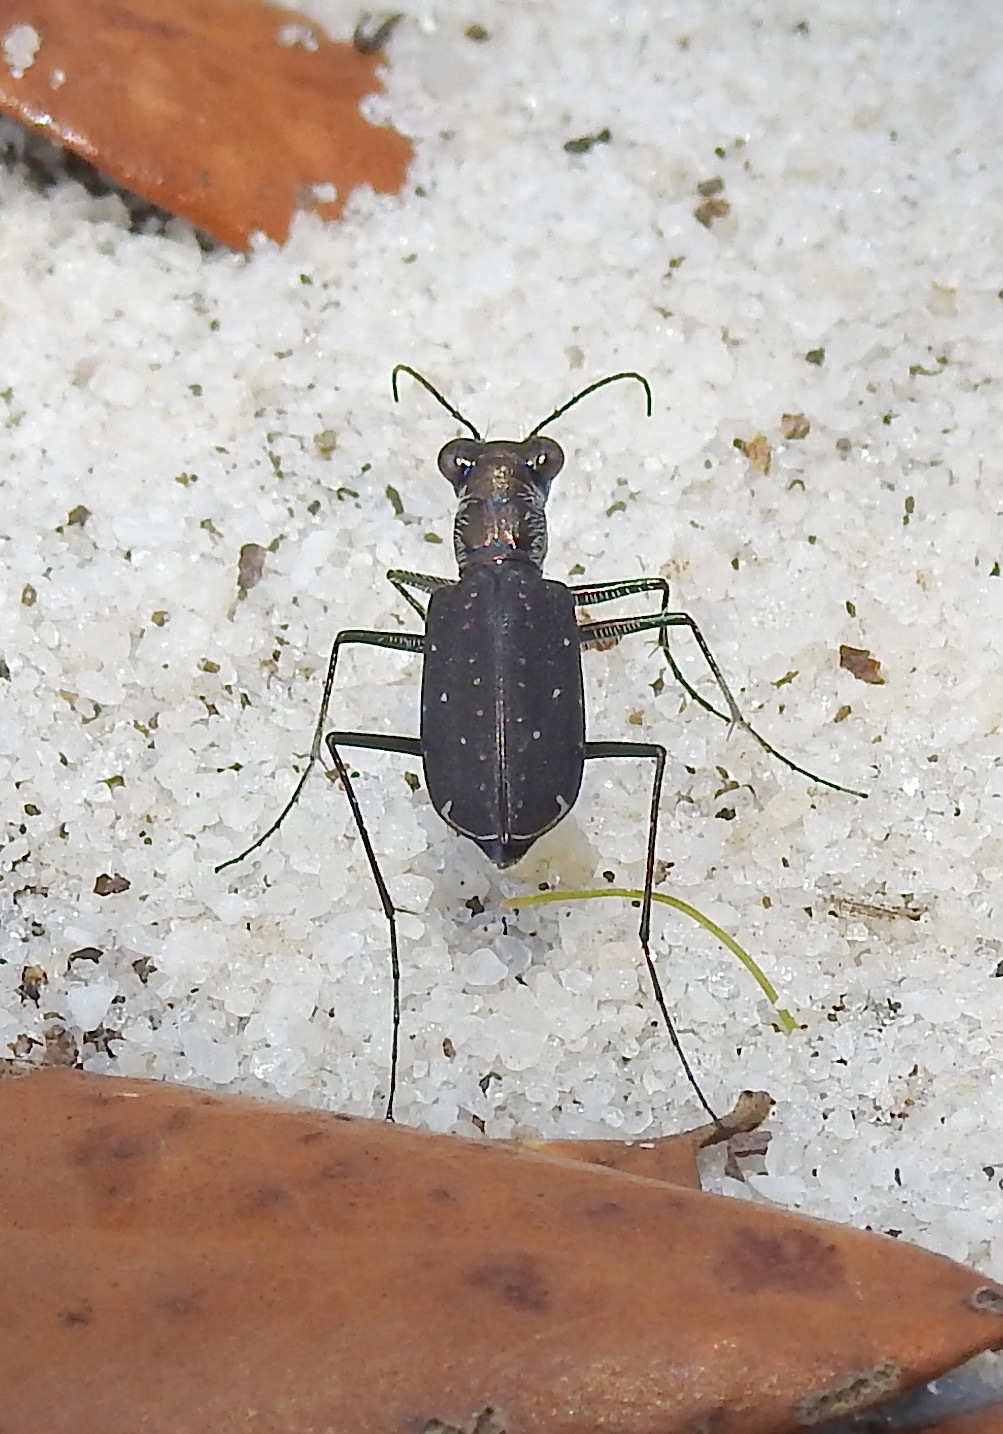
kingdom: Animalia
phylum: Arthropoda
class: Insecta
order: Coleoptera
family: Carabidae
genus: Cicindela
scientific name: Cicindela punctulata
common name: Punctured tiger beetle
